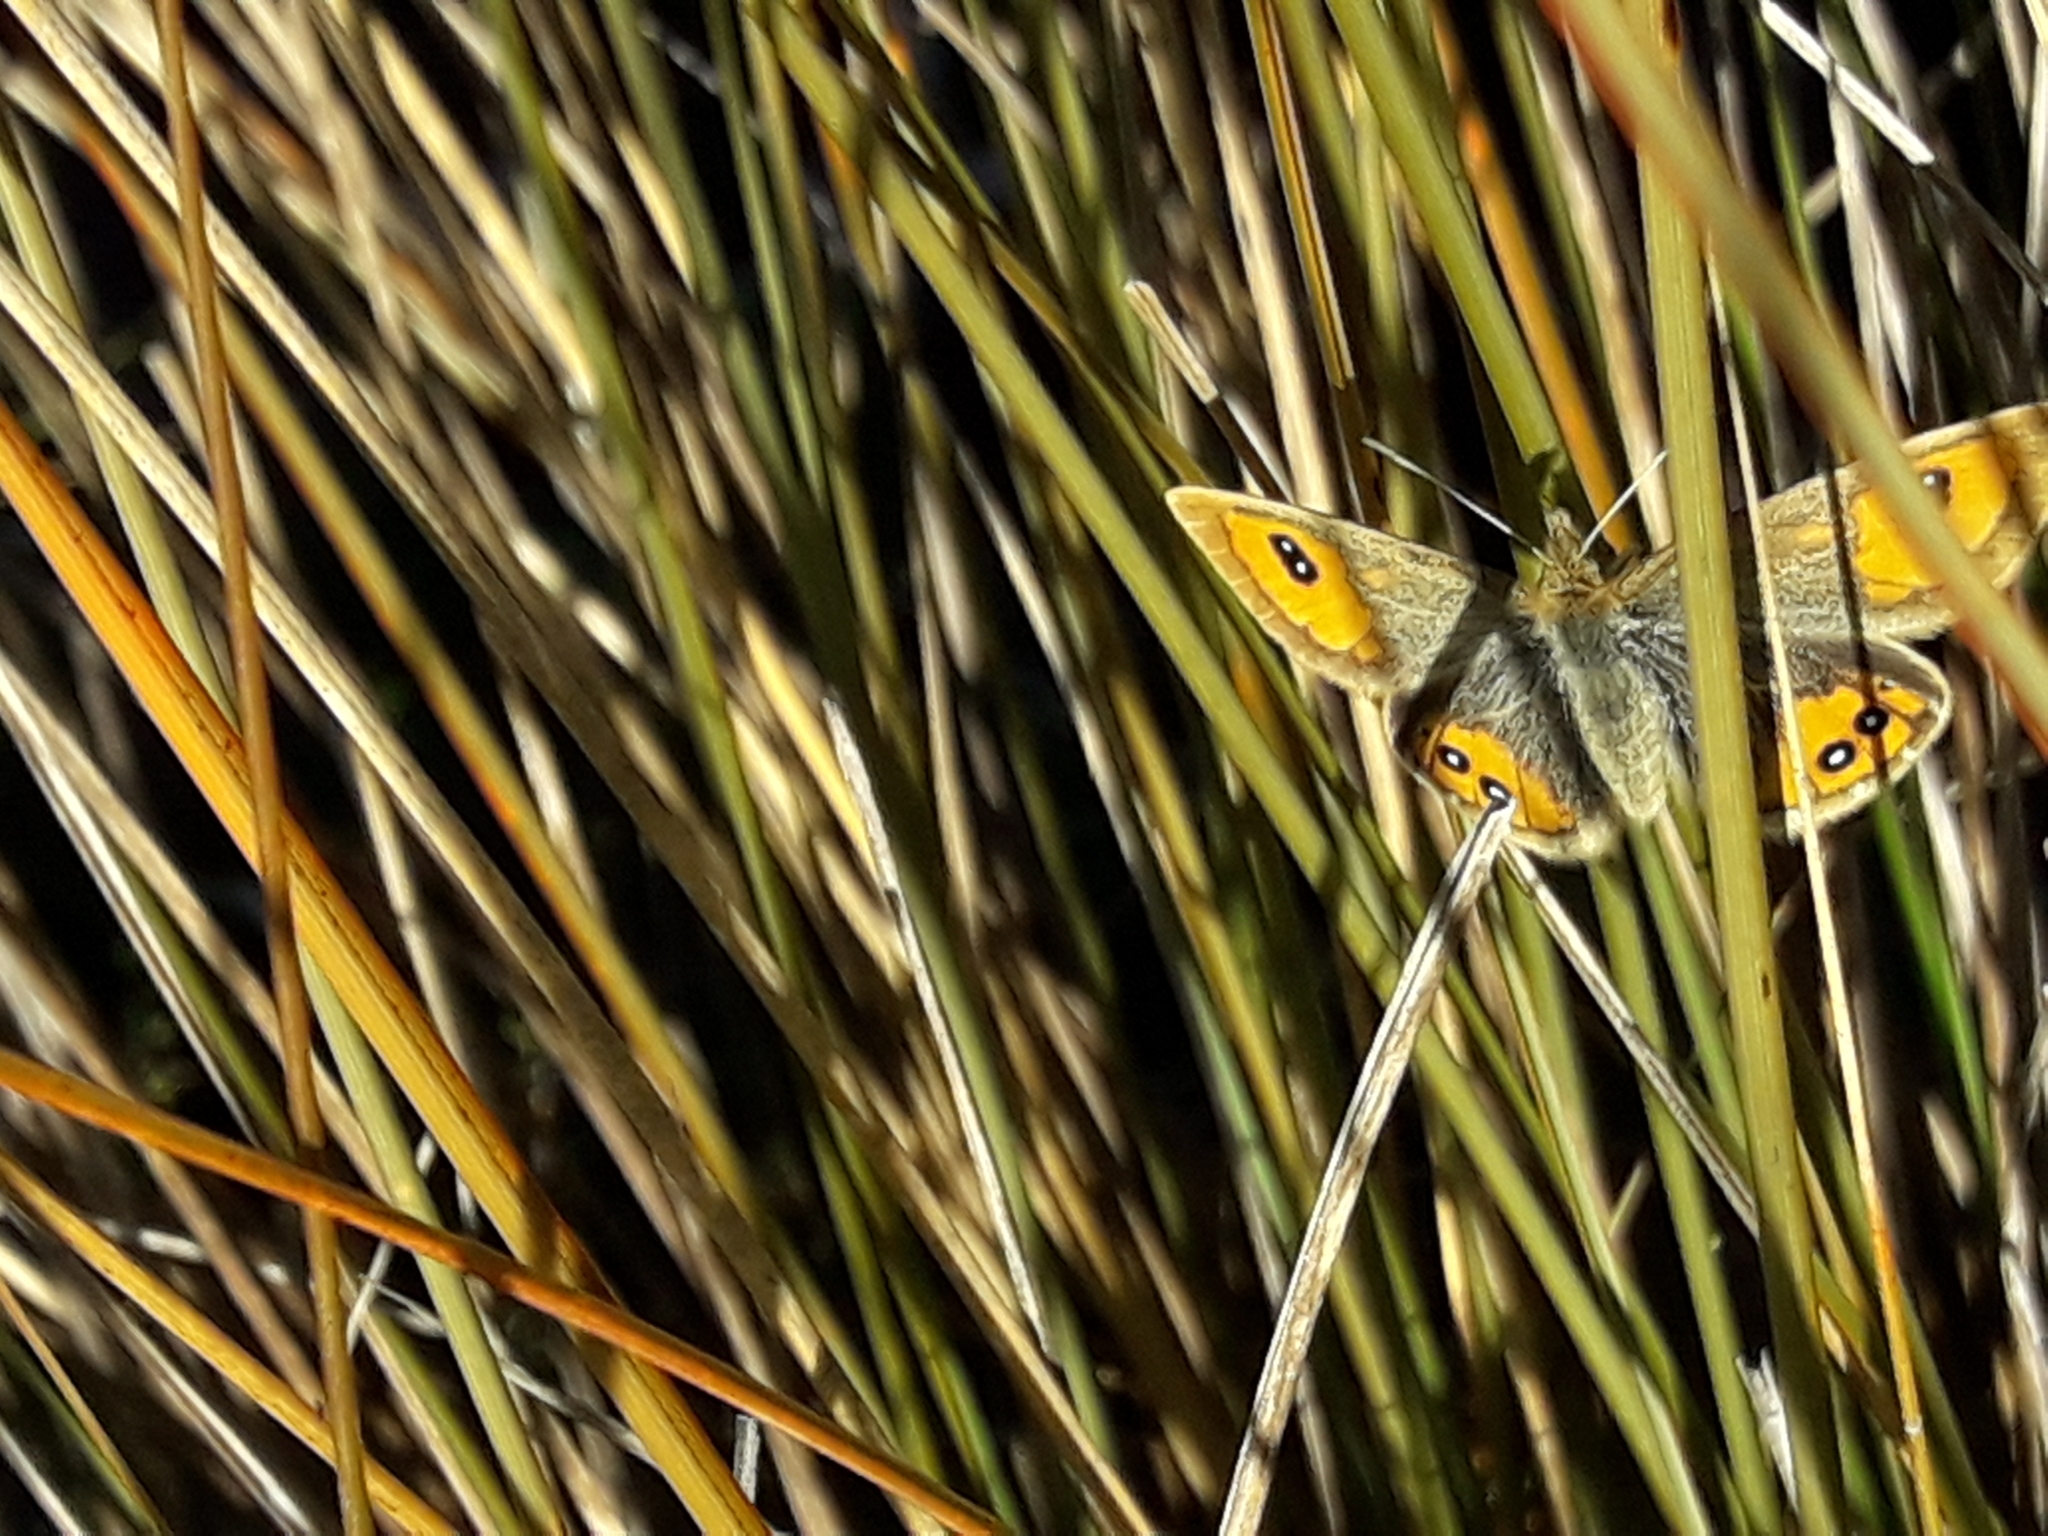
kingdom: Animalia
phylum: Arthropoda
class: Insecta
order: Lepidoptera
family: Nymphalidae
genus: Argyrophenga
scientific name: Argyrophenga janitae
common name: Janita's tussock
